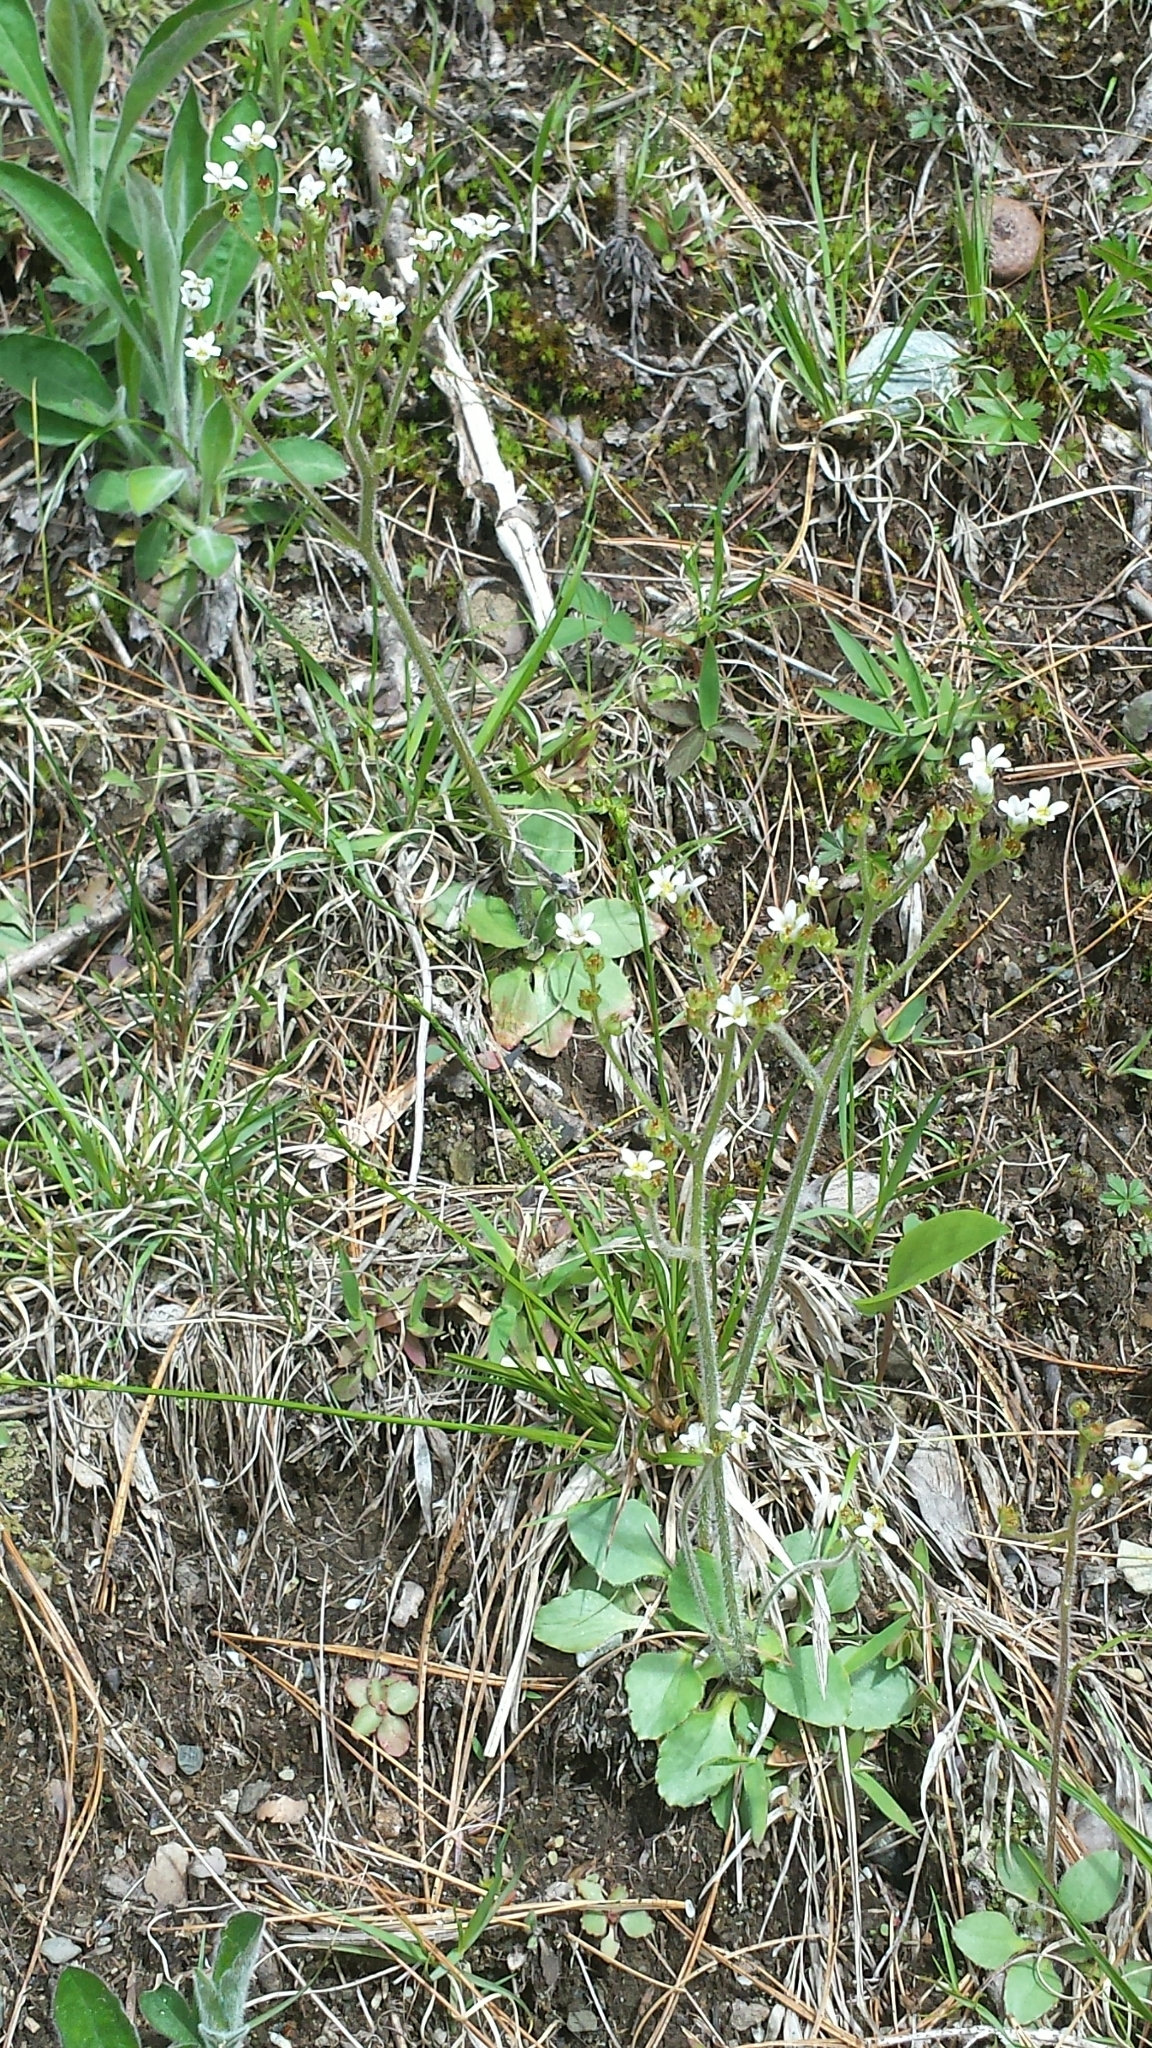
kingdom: Plantae
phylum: Tracheophyta
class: Magnoliopsida
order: Saxifragales
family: Saxifragaceae
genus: Micranthes
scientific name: Micranthes virginiensis
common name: Early saxifrage
